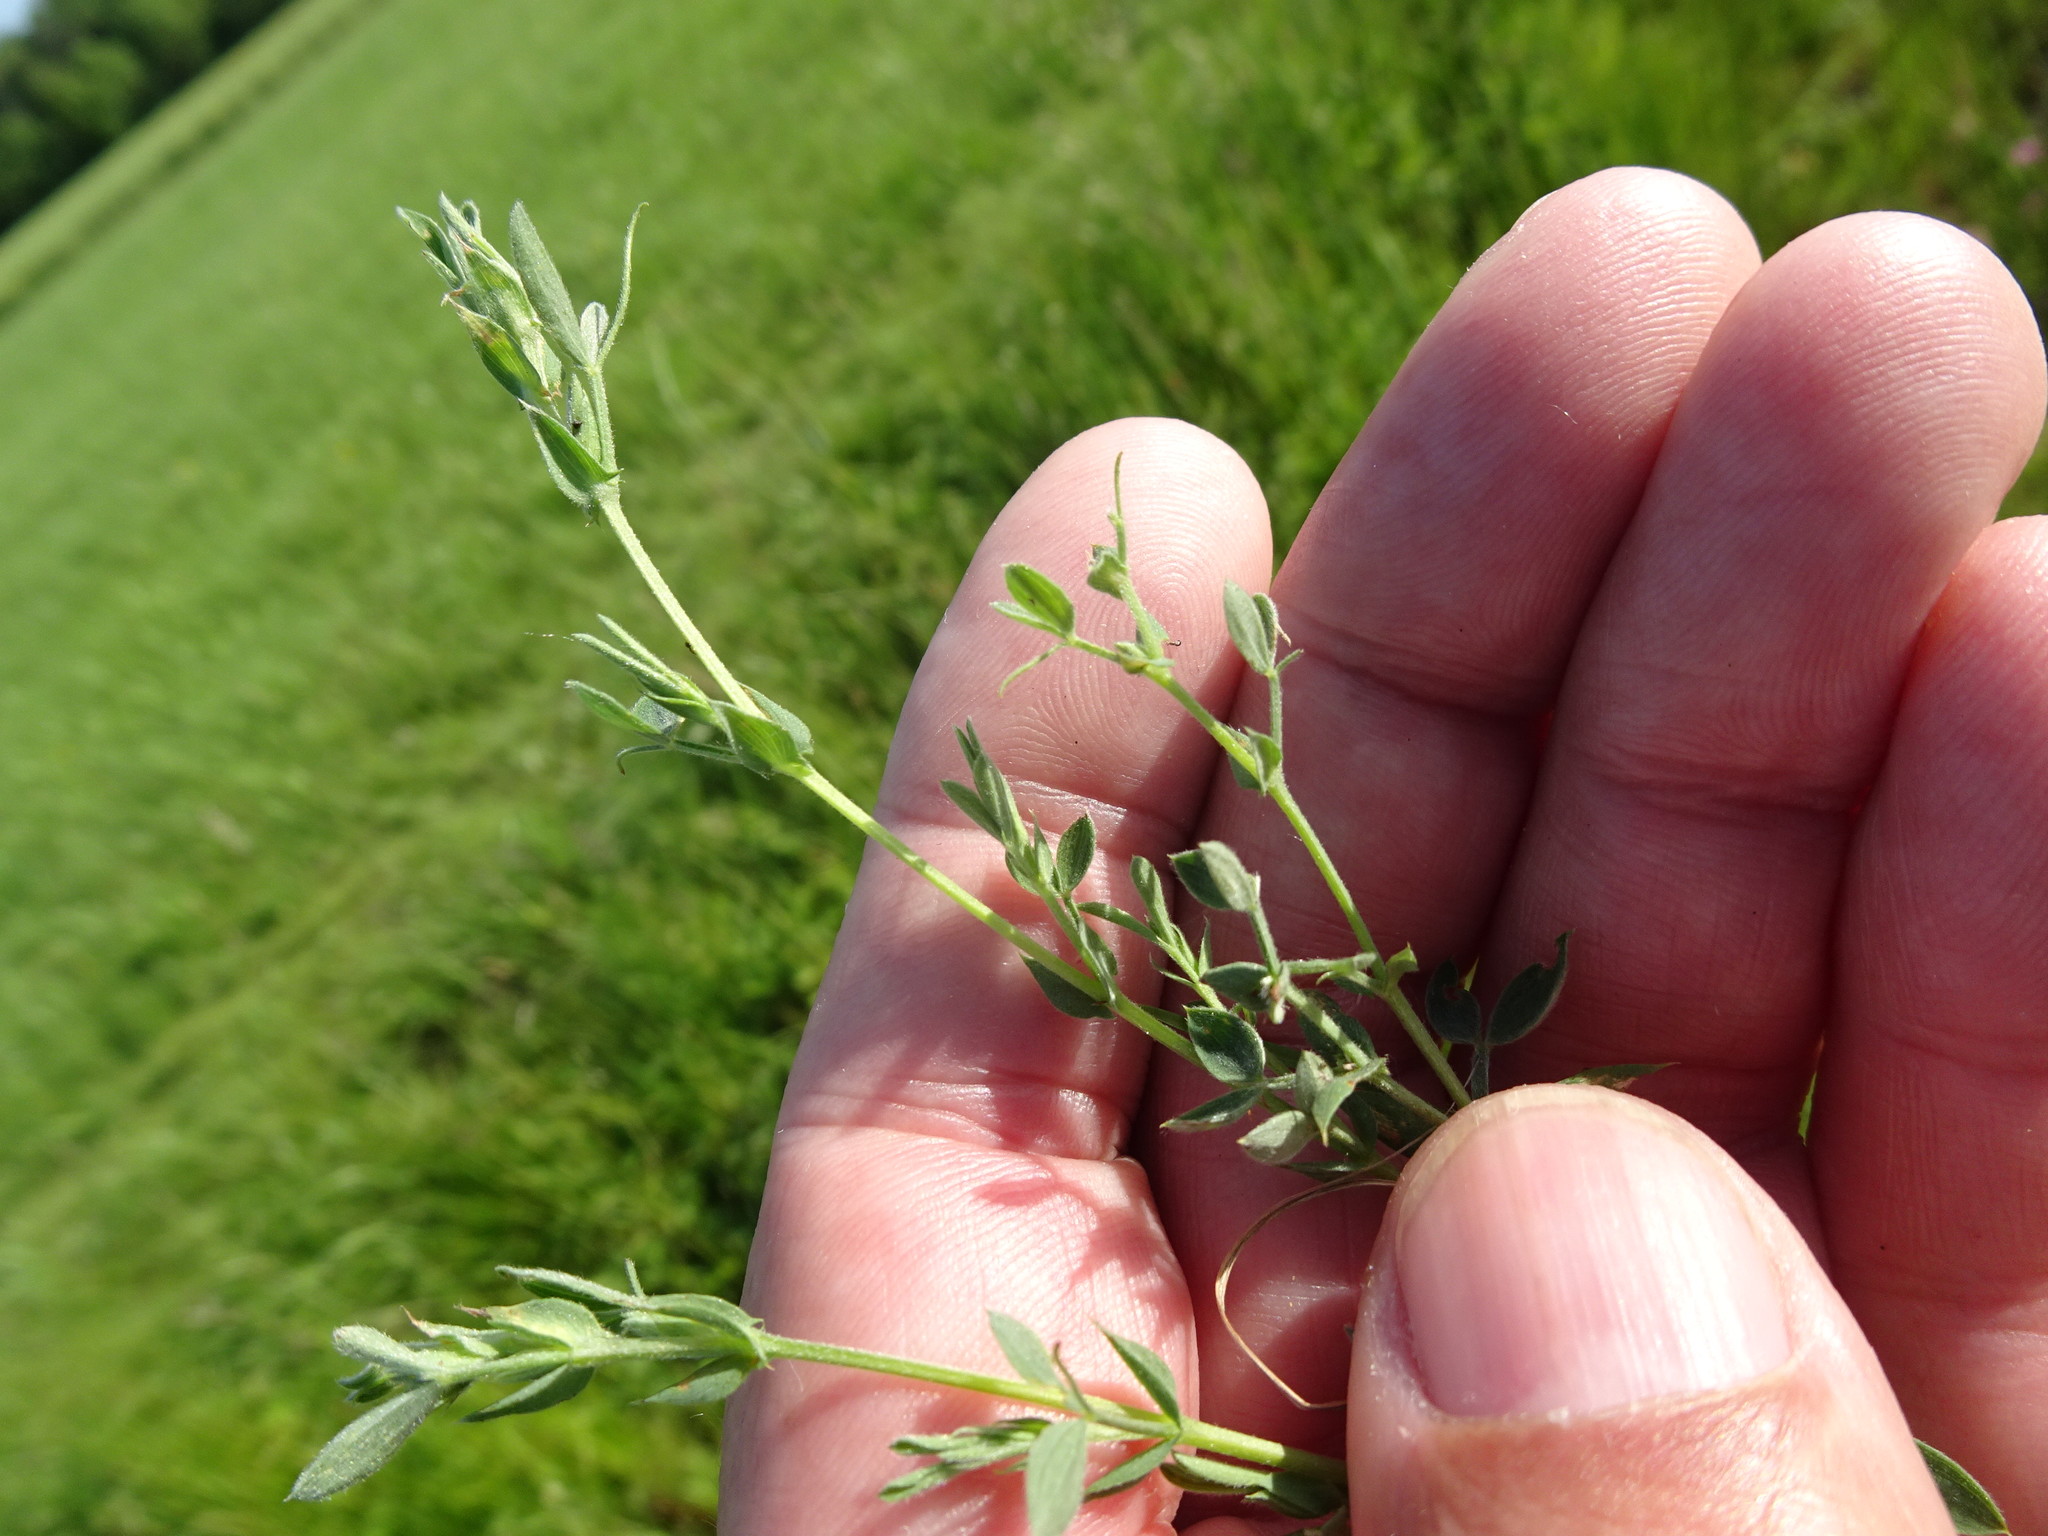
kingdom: Plantae
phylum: Tracheophyta
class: Magnoliopsida
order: Fabales
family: Fabaceae
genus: Lathyrus
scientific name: Lathyrus pratensis
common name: Meadow vetchling
